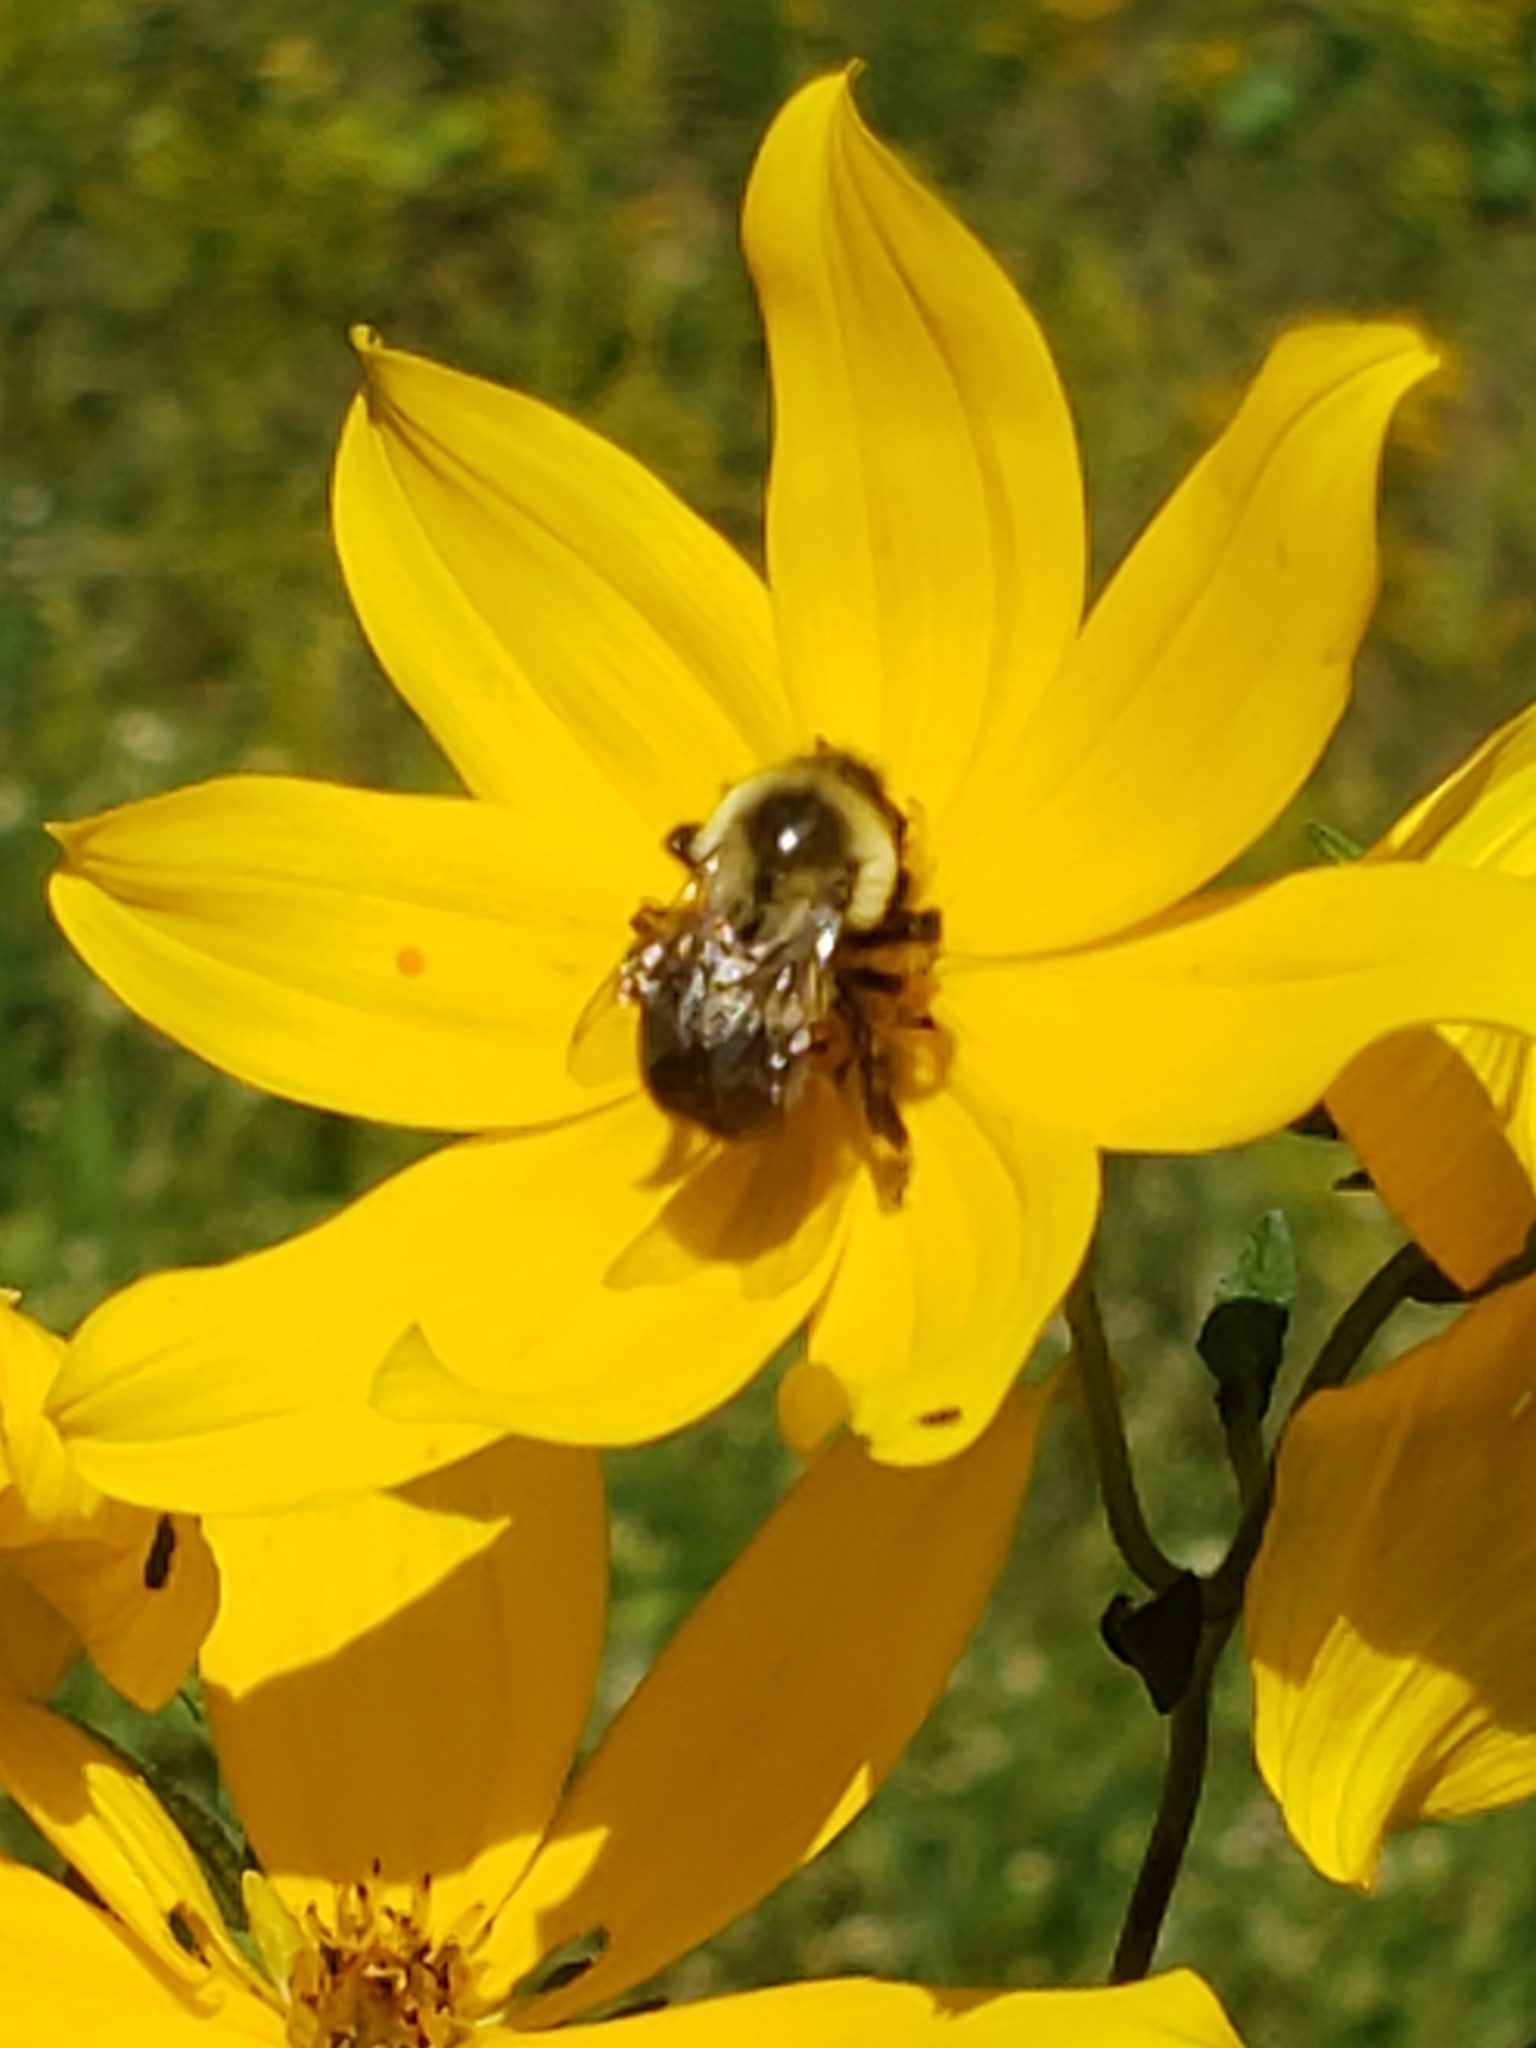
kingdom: Animalia
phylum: Arthropoda
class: Insecta
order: Hymenoptera
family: Apidae
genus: Bombus
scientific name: Bombus impatiens
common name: Common eastern bumble bee
